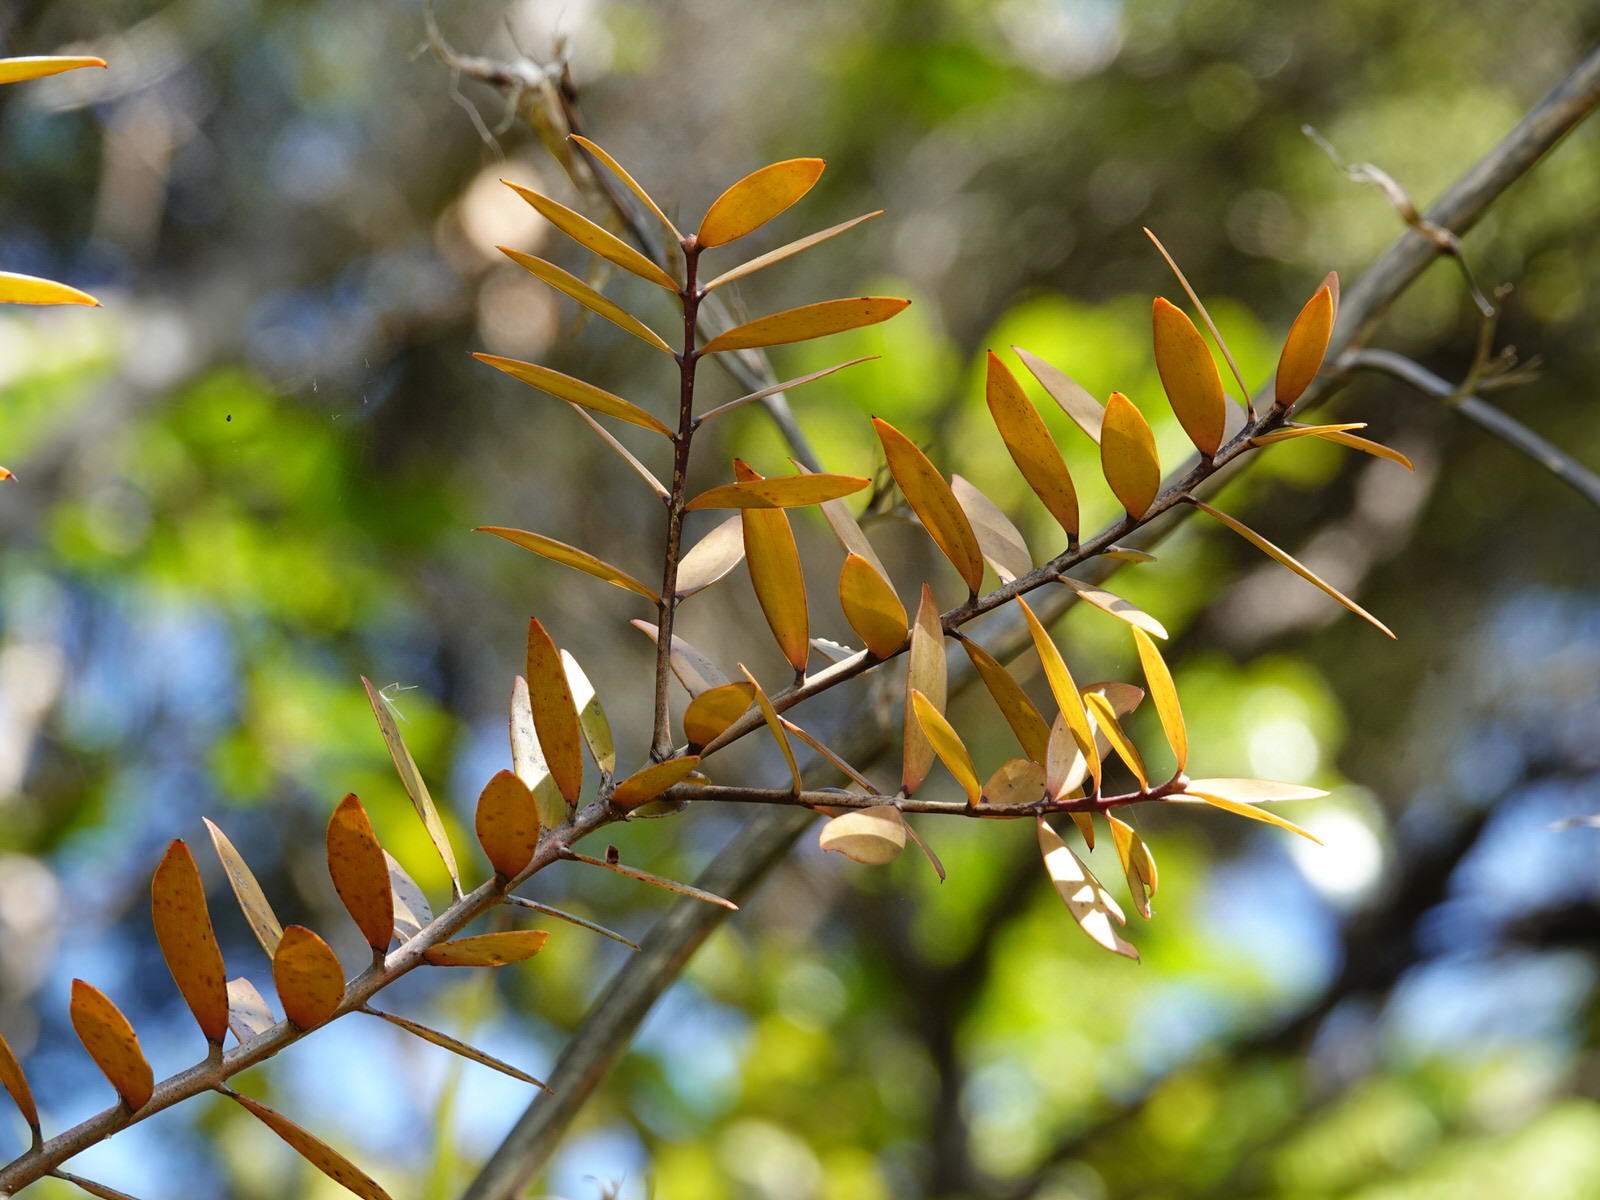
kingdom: Plantae
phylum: Tracheophyta
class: Pinopsida
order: Pinales
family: Araucariaceae
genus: Agathis
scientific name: Agathis australis
